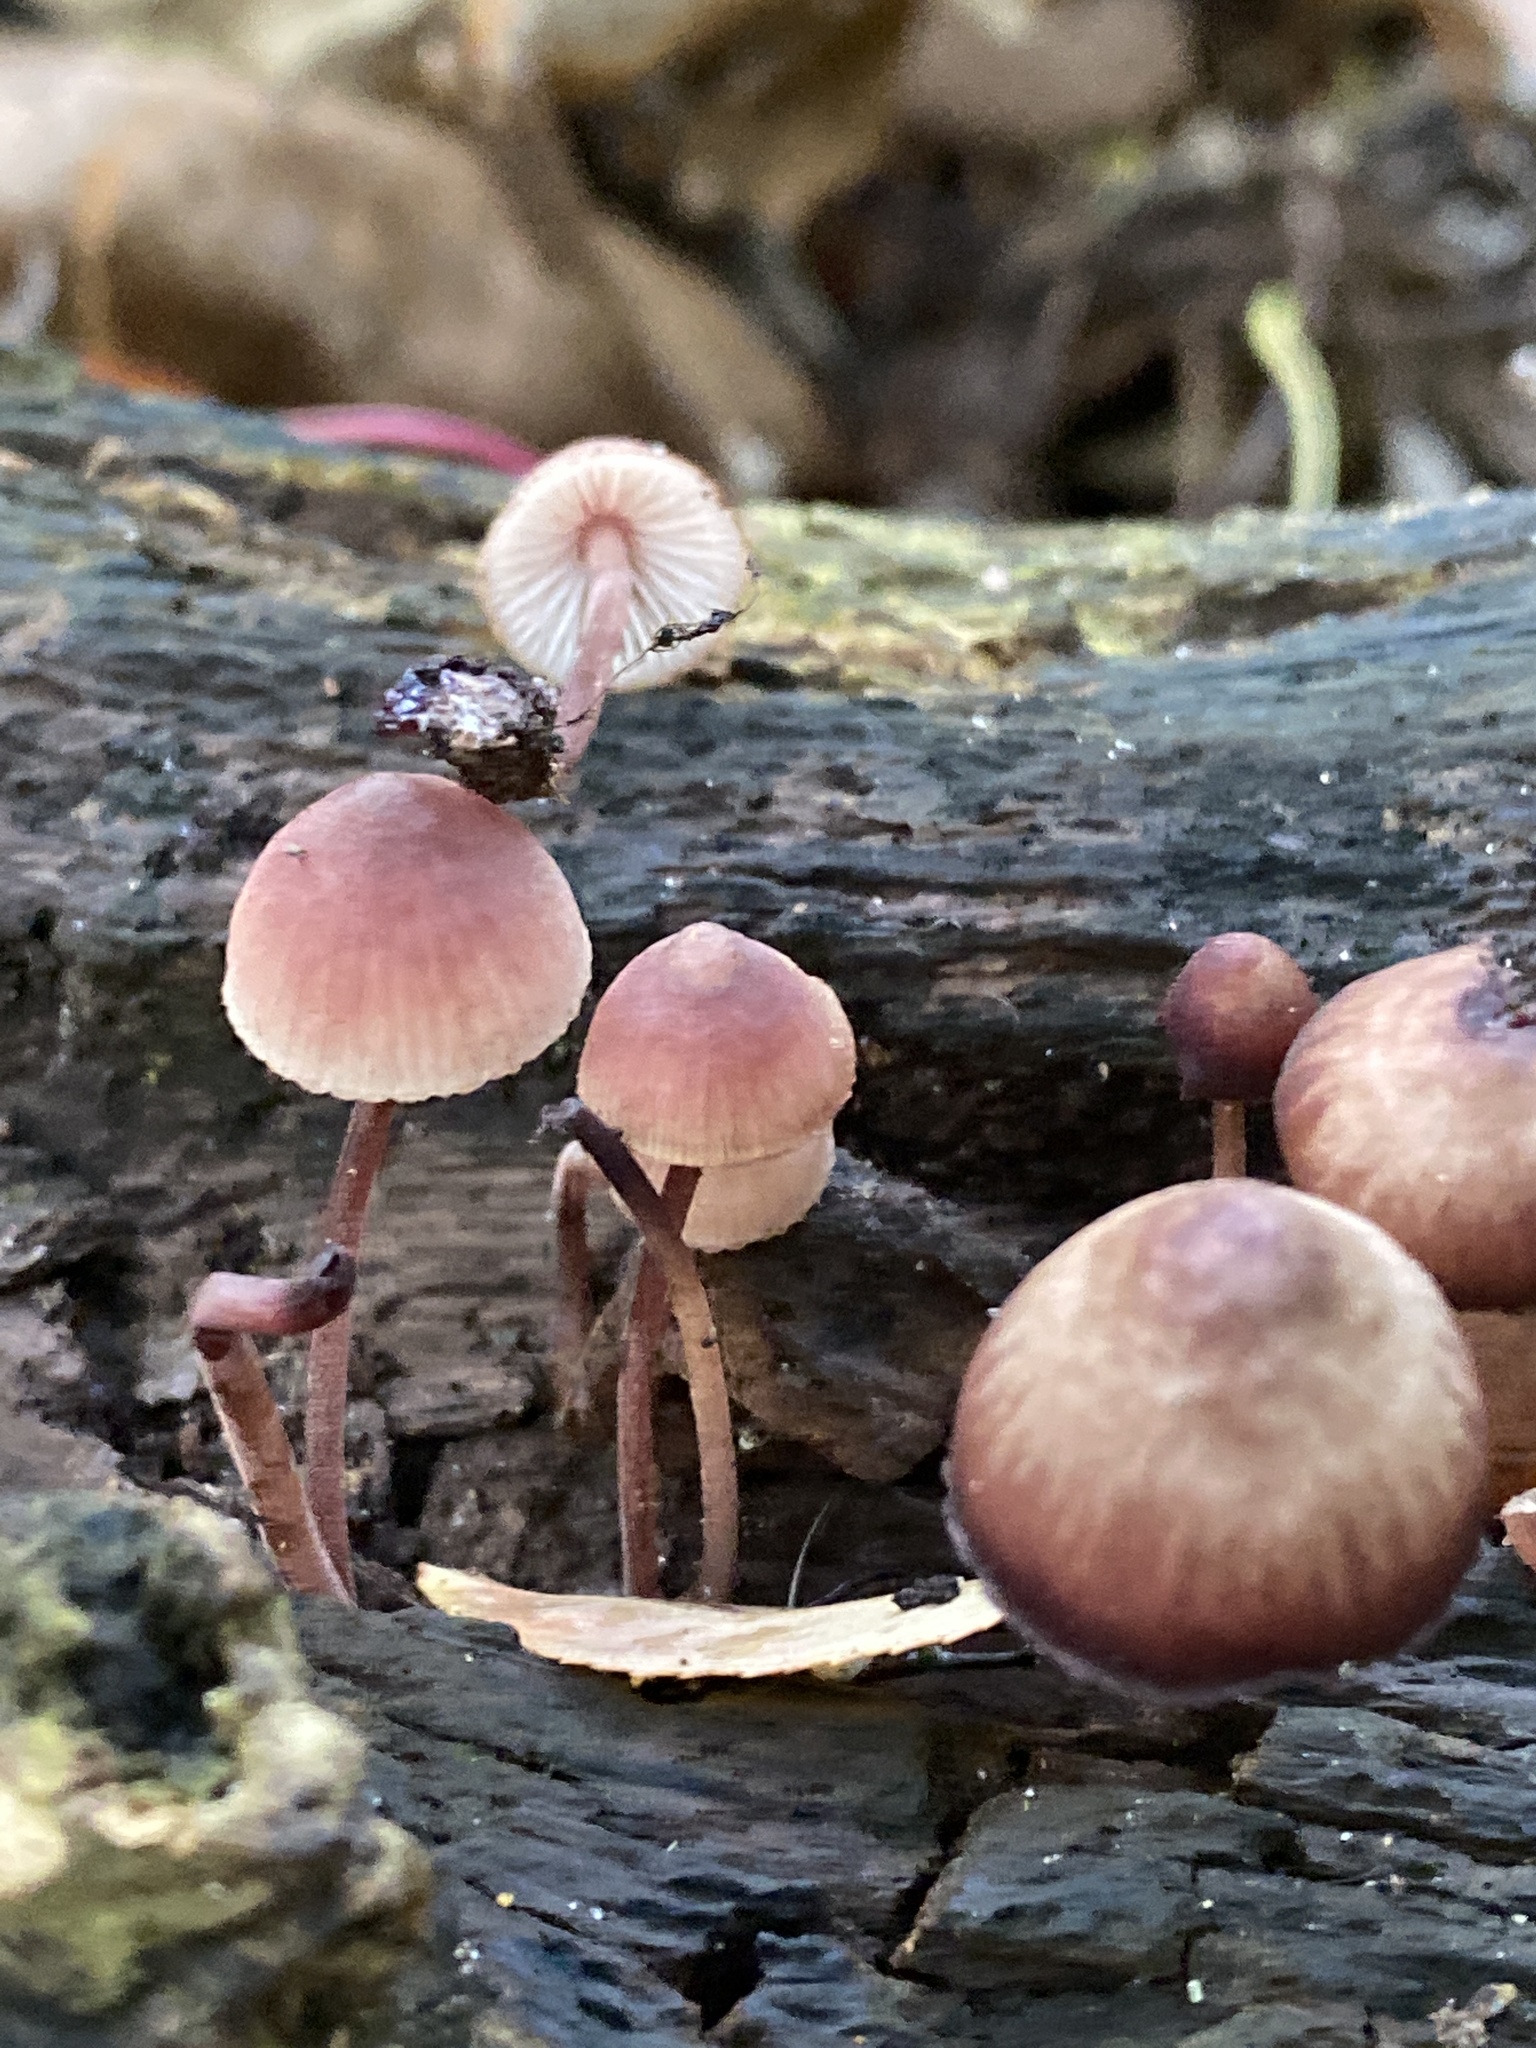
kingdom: Fungi
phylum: Basidiomycota
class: Agaricomycetes
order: Agaricales
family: Mycenaceae
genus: Mycena
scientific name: Mycena haematopus
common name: Burgundydrop bonnet
